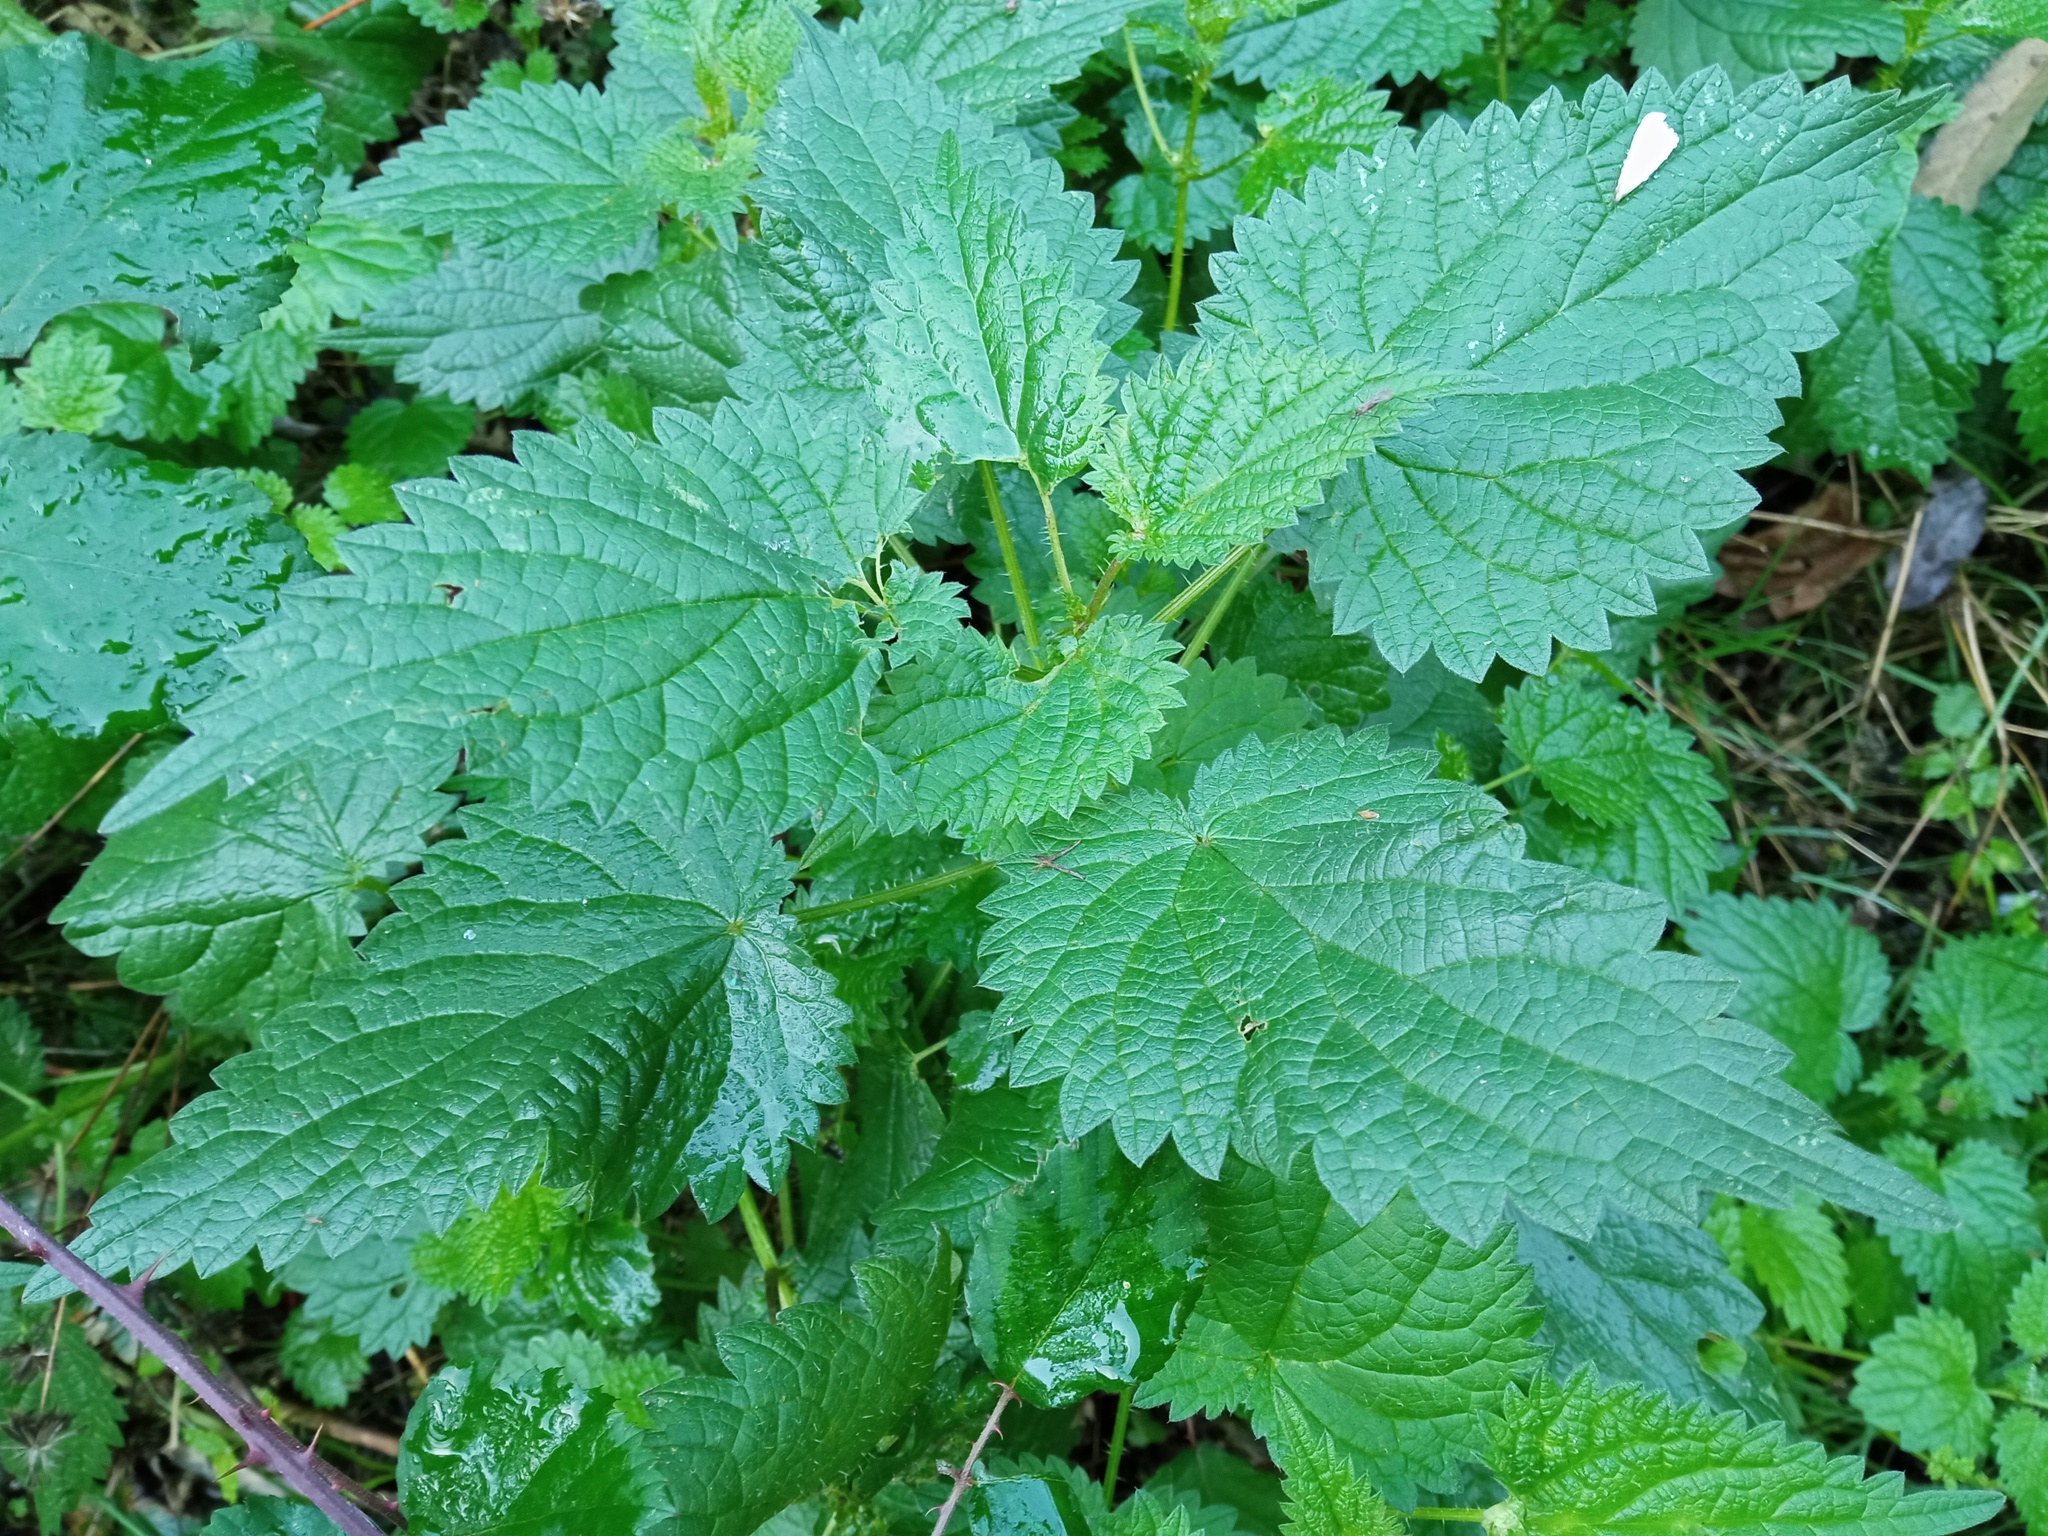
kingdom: Plantae
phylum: Tracheophyta
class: Magnoliopsida
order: Rosales
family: Urticaceae
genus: Urtica
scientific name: Urtica dioica
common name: Common nettle
